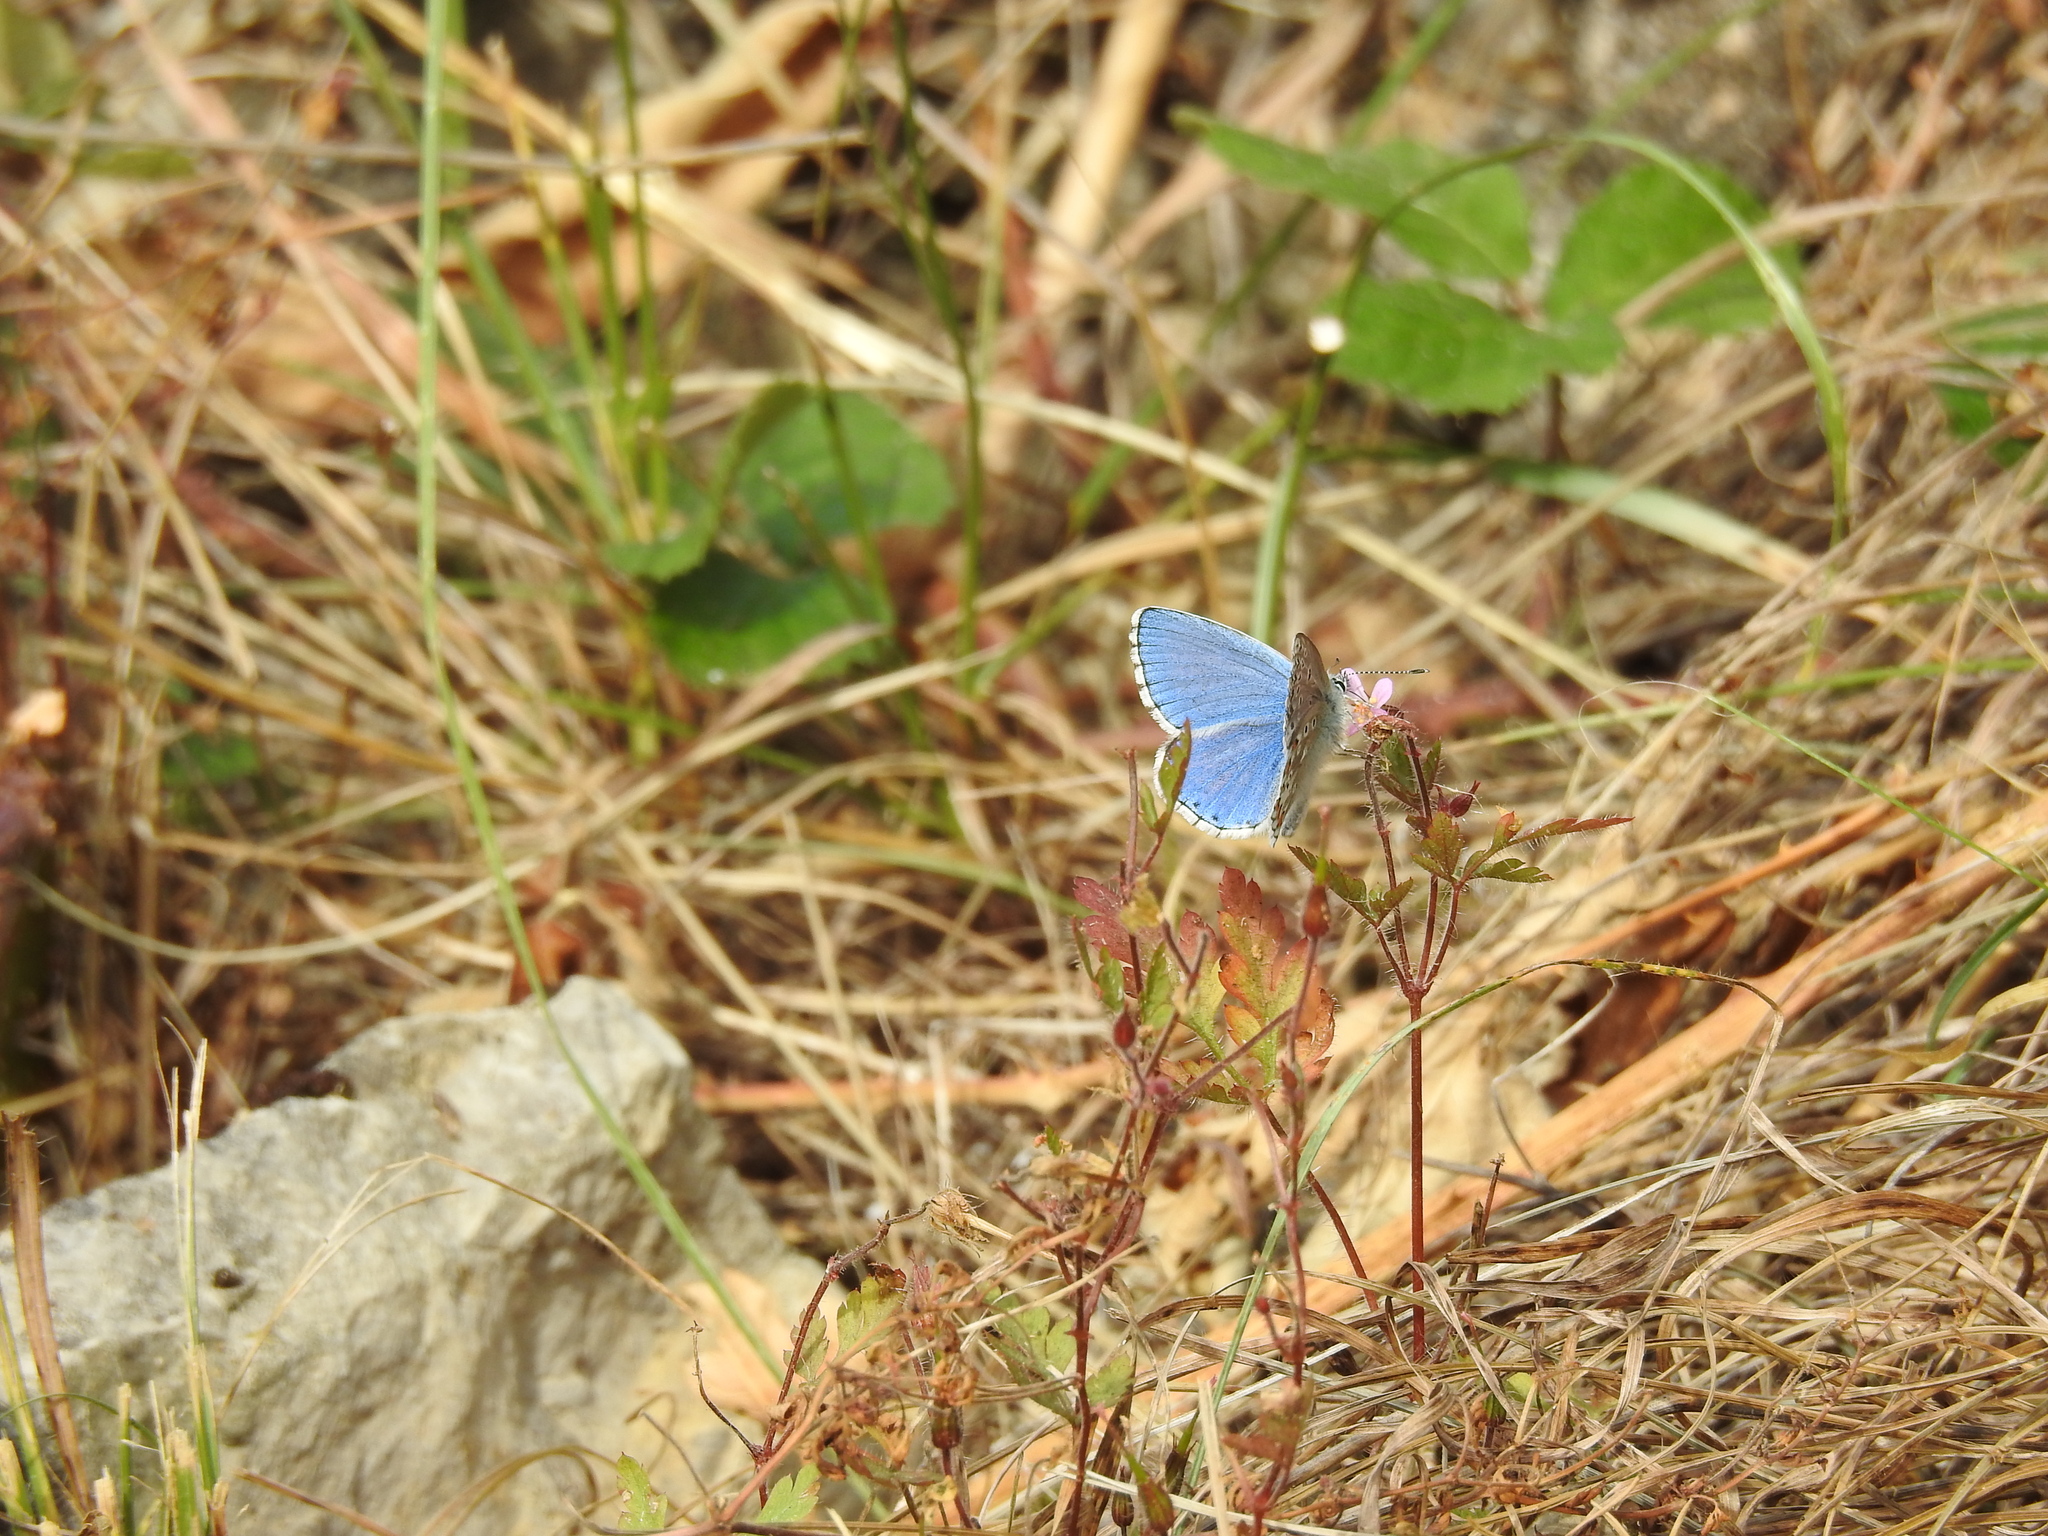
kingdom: Animalia
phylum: Arthropoda
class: Insecta
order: Lepidoptera
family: Lycaenidae
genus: Lysandra
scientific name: Lysandra bellargus
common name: Adonis blue
